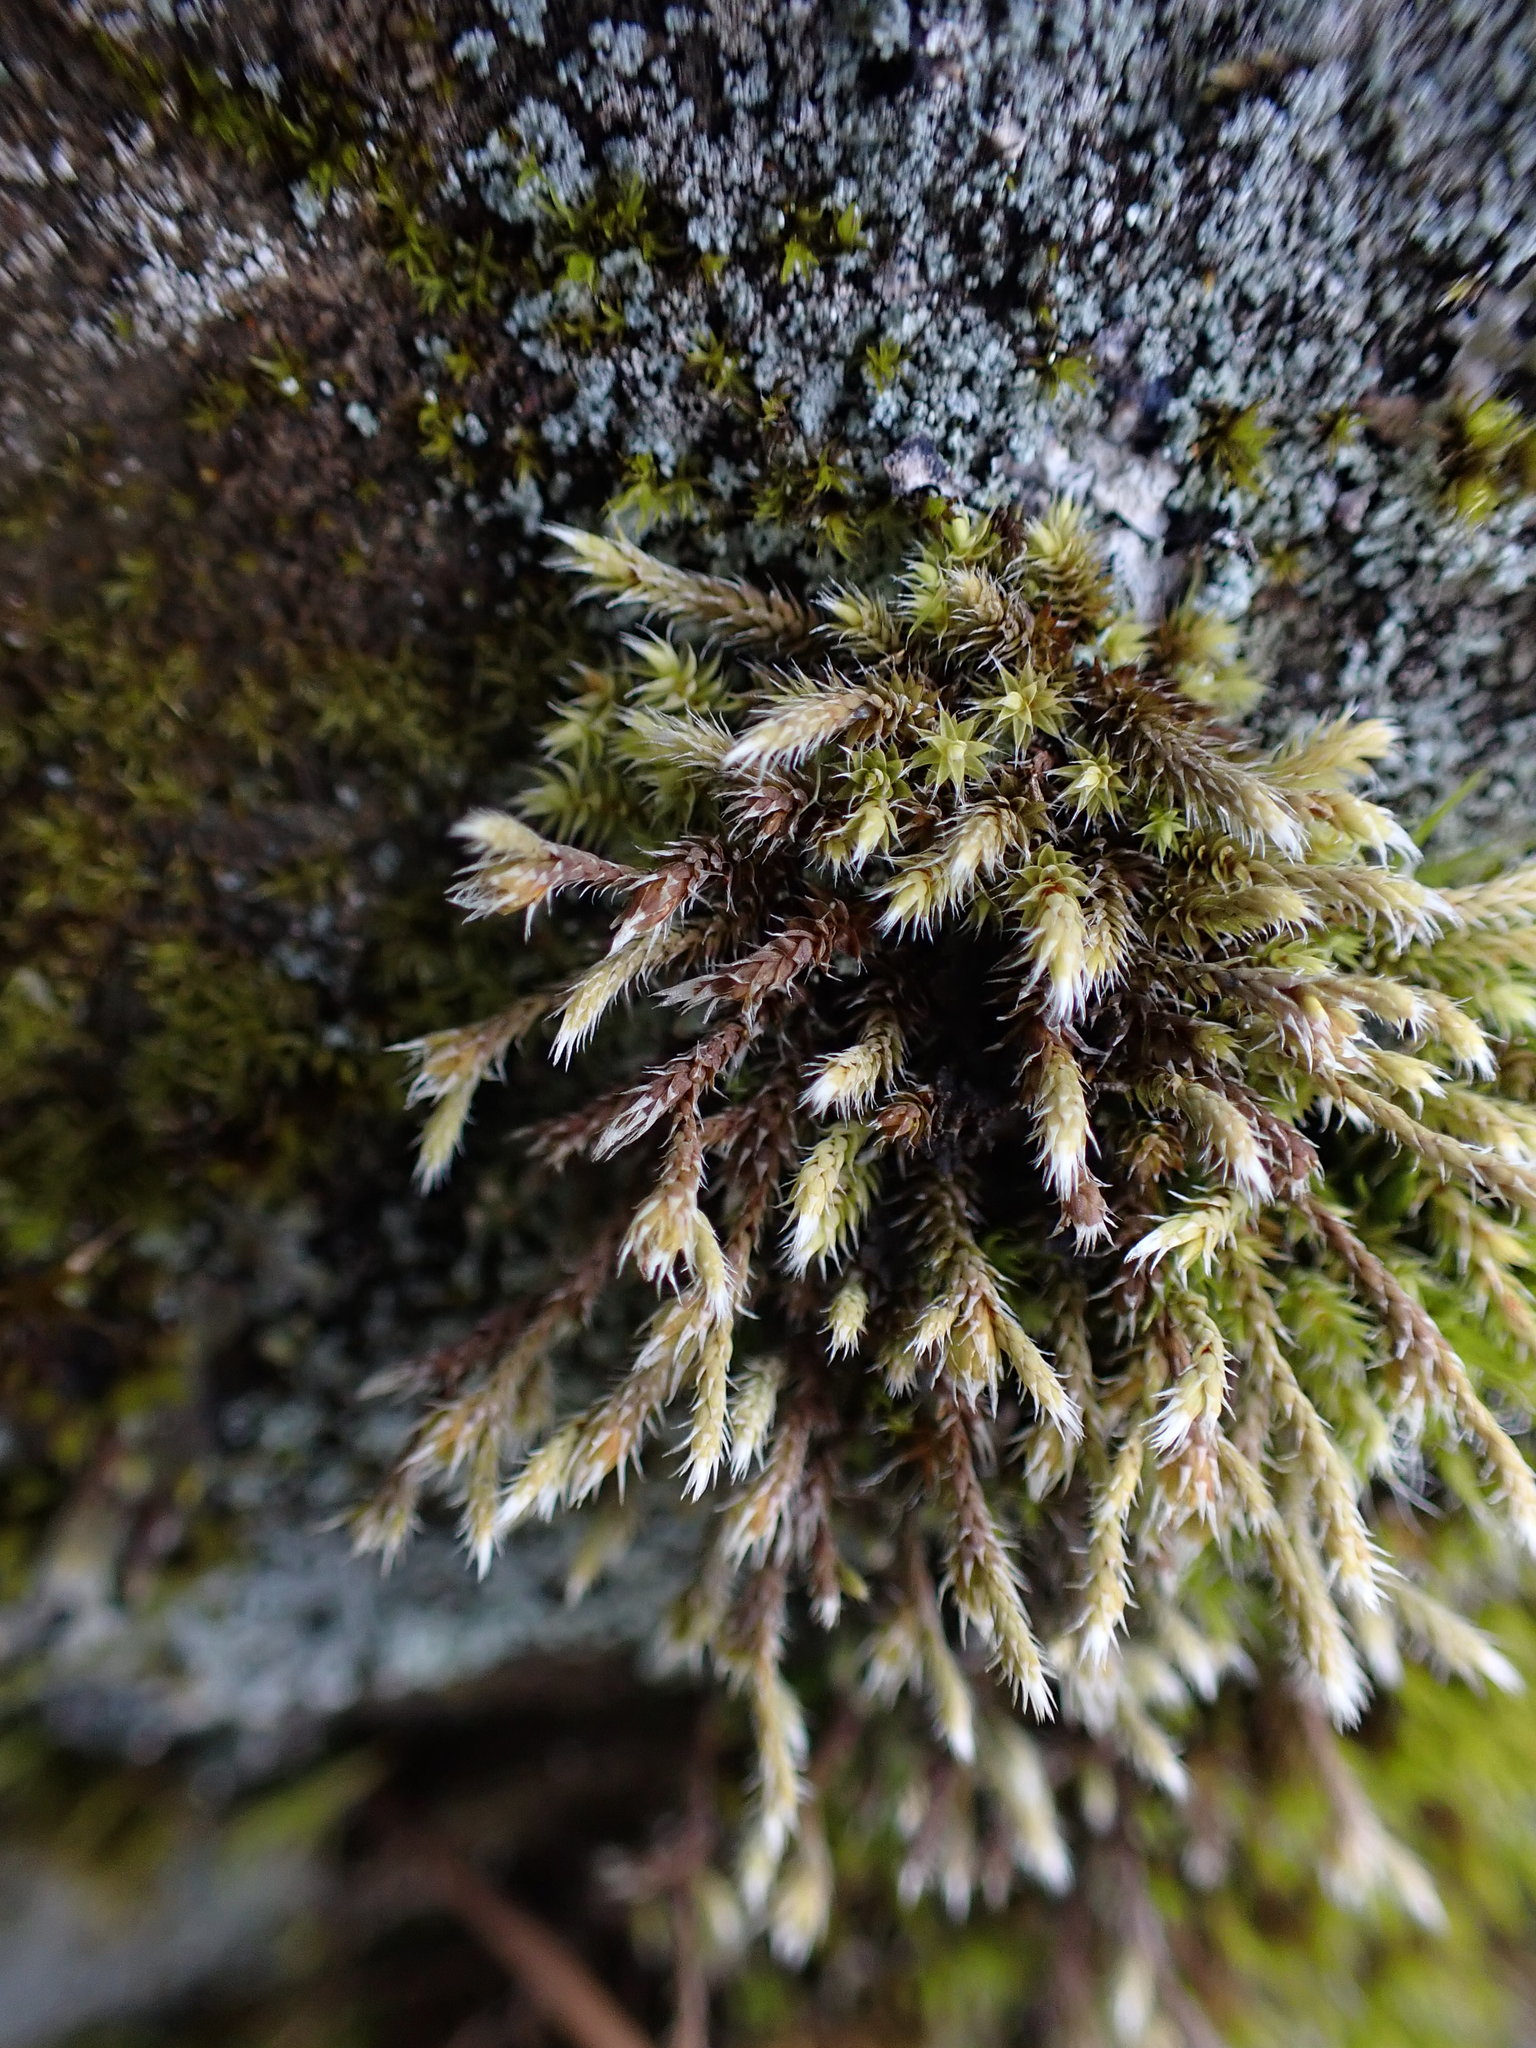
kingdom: Plantae
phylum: Bryophyta
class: Bryopsida
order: Hedwigiales
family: Hedwigiaceae
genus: Hedwigia
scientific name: Hedwigia stellata
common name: Starry hoar-moss
